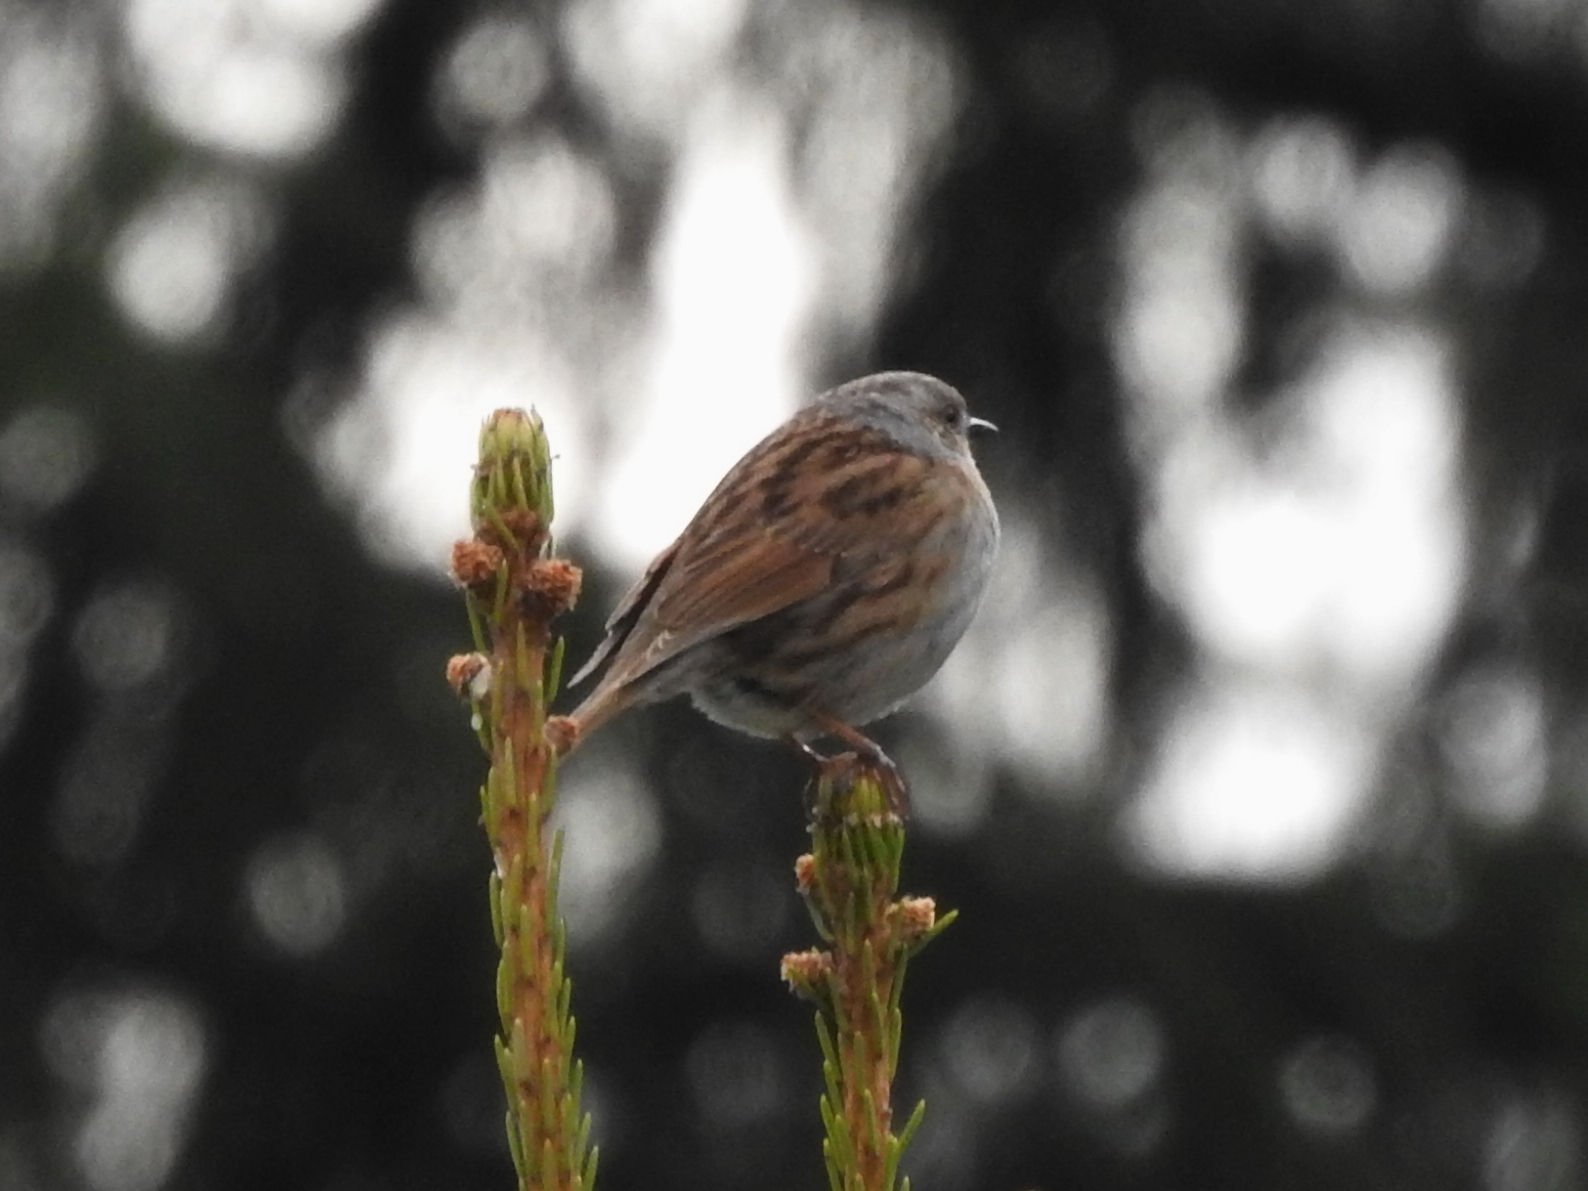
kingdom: Animalia
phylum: Chordata
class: Aves
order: Passeriformes
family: Prunellidae
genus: Prunella
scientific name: Prunella modularis
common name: Dunnock
